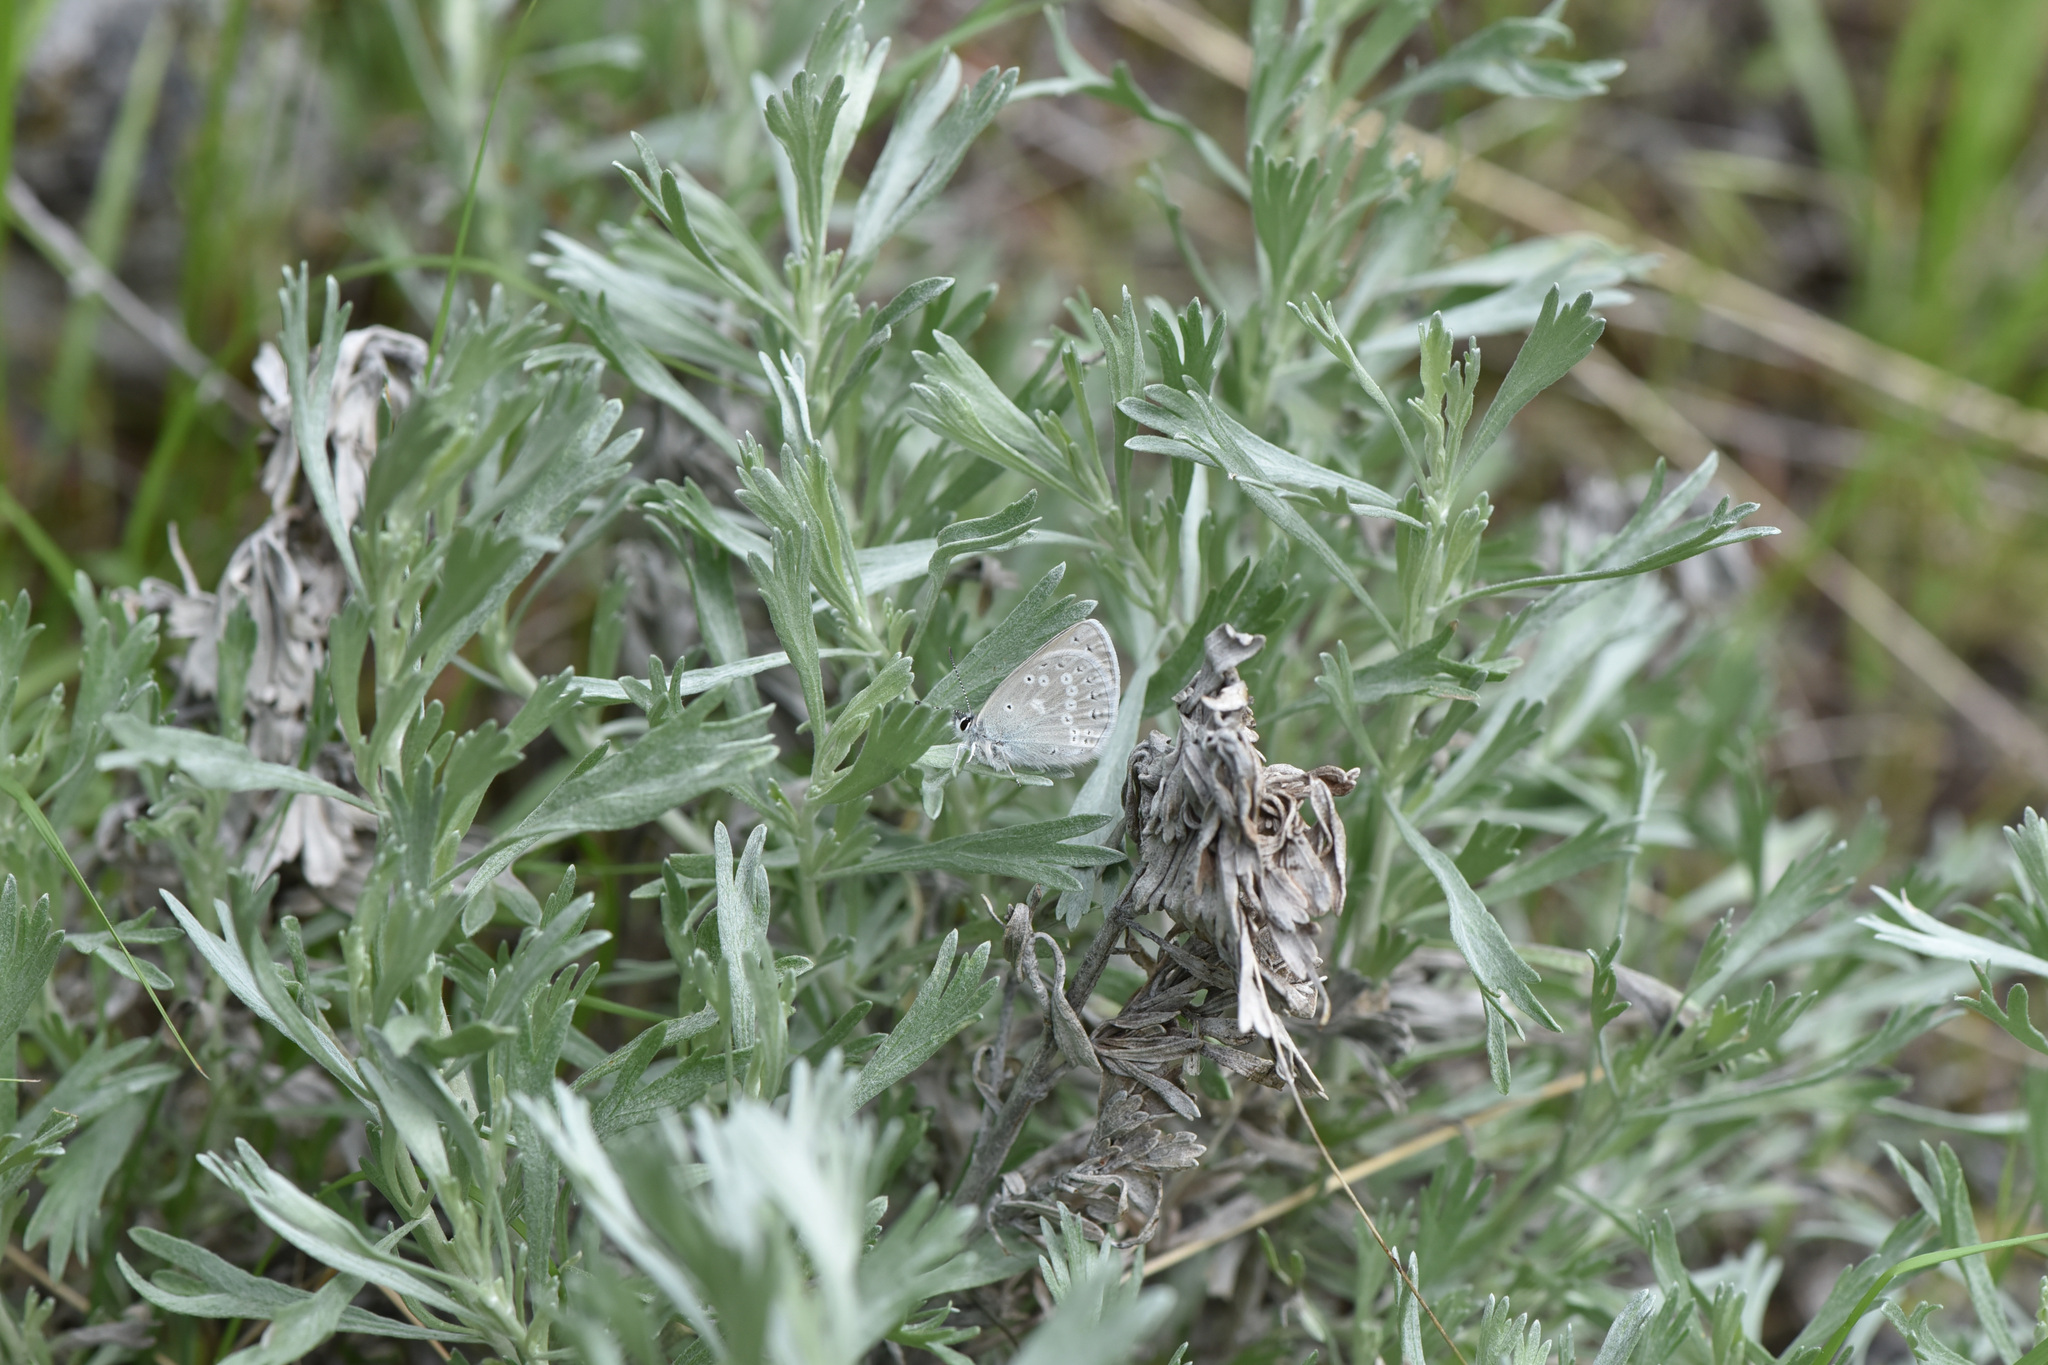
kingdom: Plantae
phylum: Tracheophyta
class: Magnoliopsida
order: Asterales
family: Asteraceae
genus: Artemisia
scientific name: Artemisia tripartita
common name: Three-tip sagebrush
